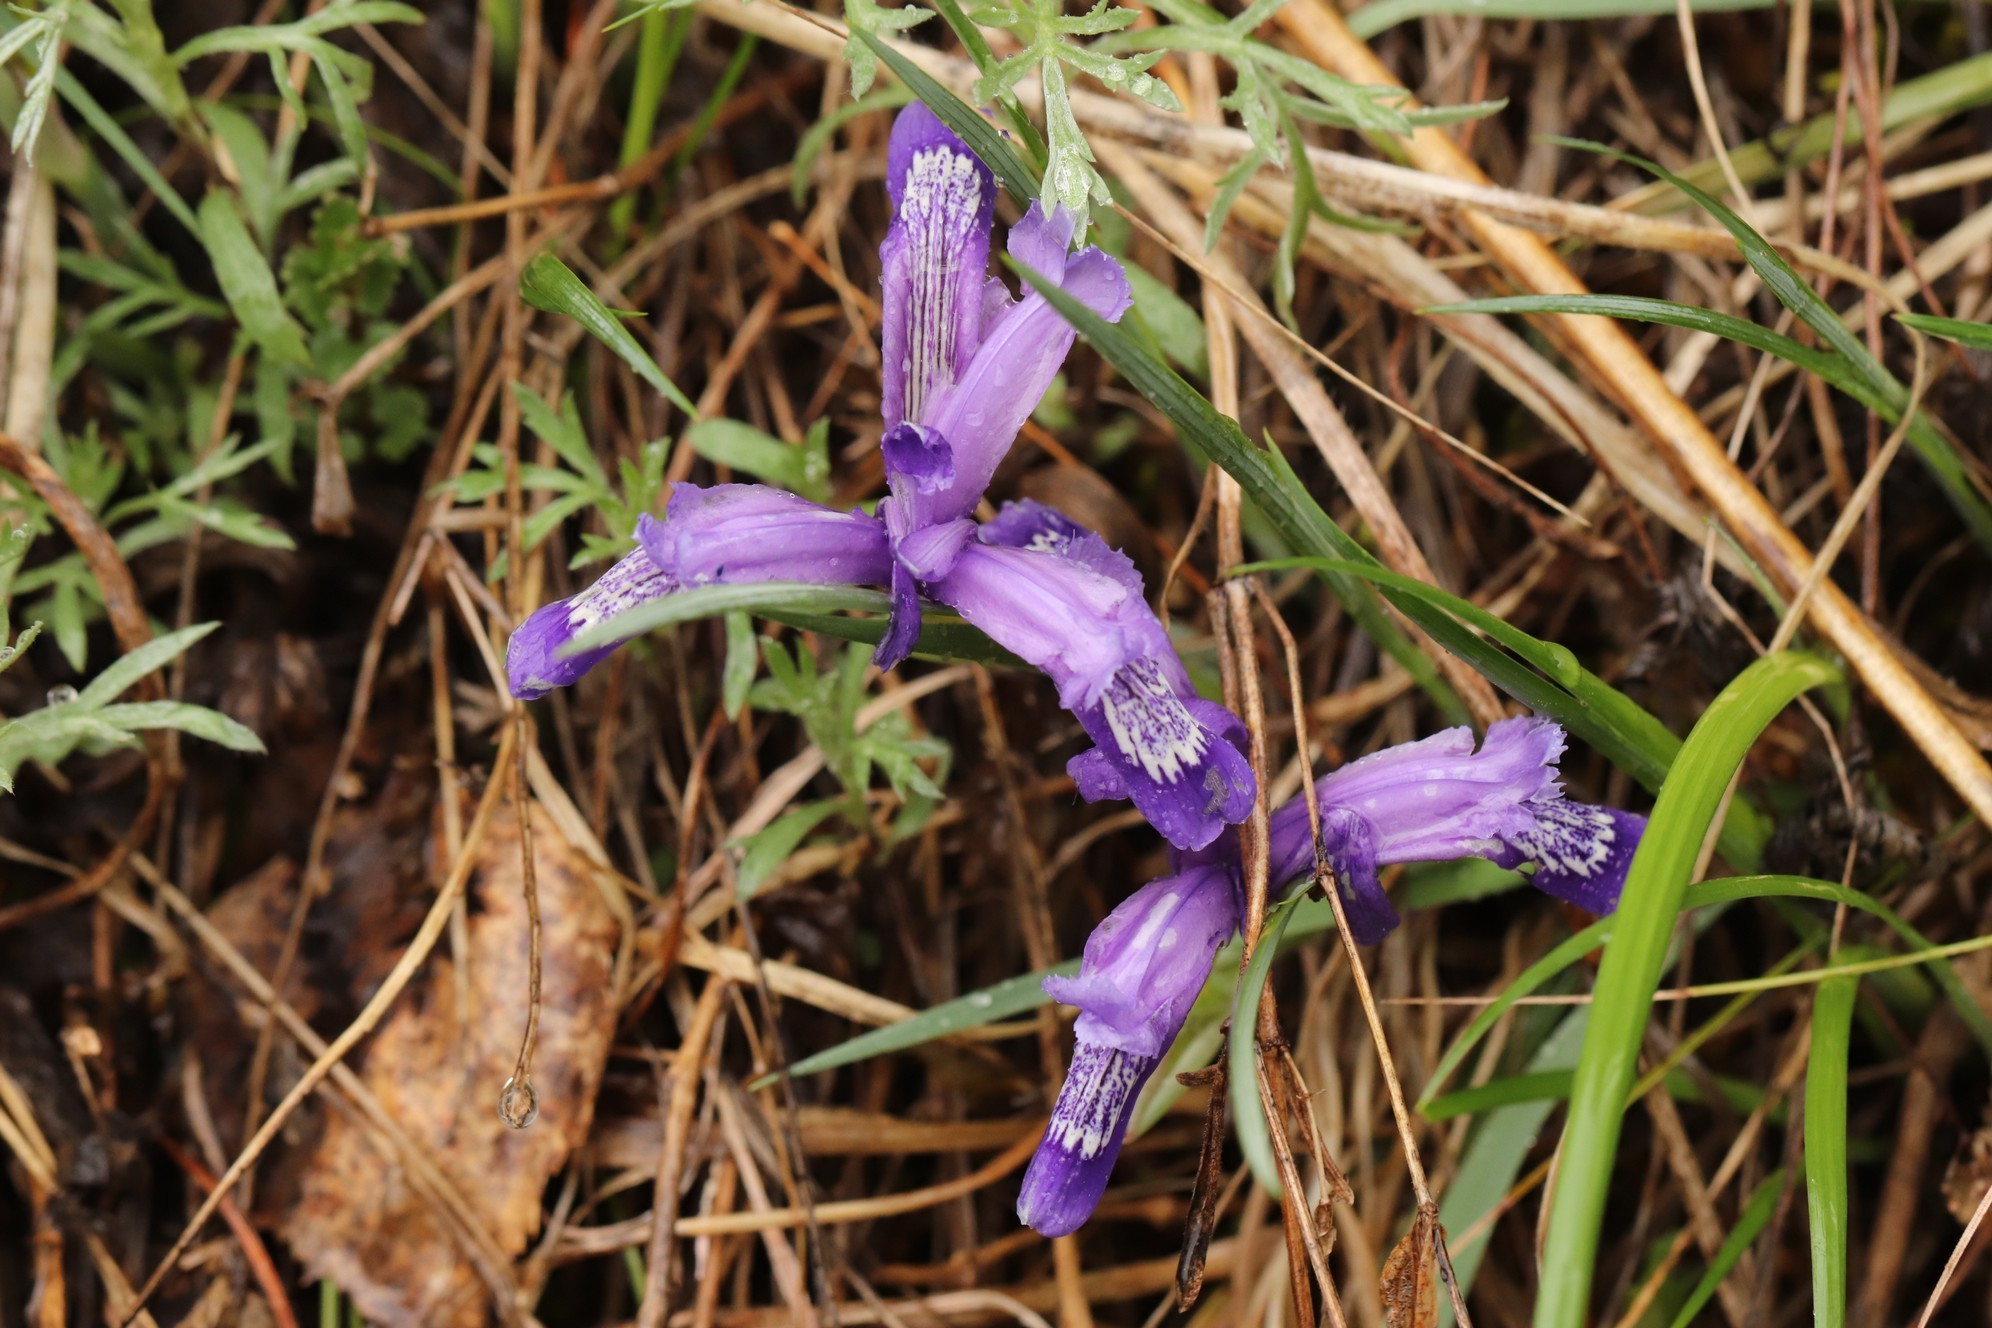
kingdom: Plantae
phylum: Tracheophyta
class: Liliopsida
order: Asparagales
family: Iridaceae
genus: Iris
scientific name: Iris ruthenica
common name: Purple-bract iris
